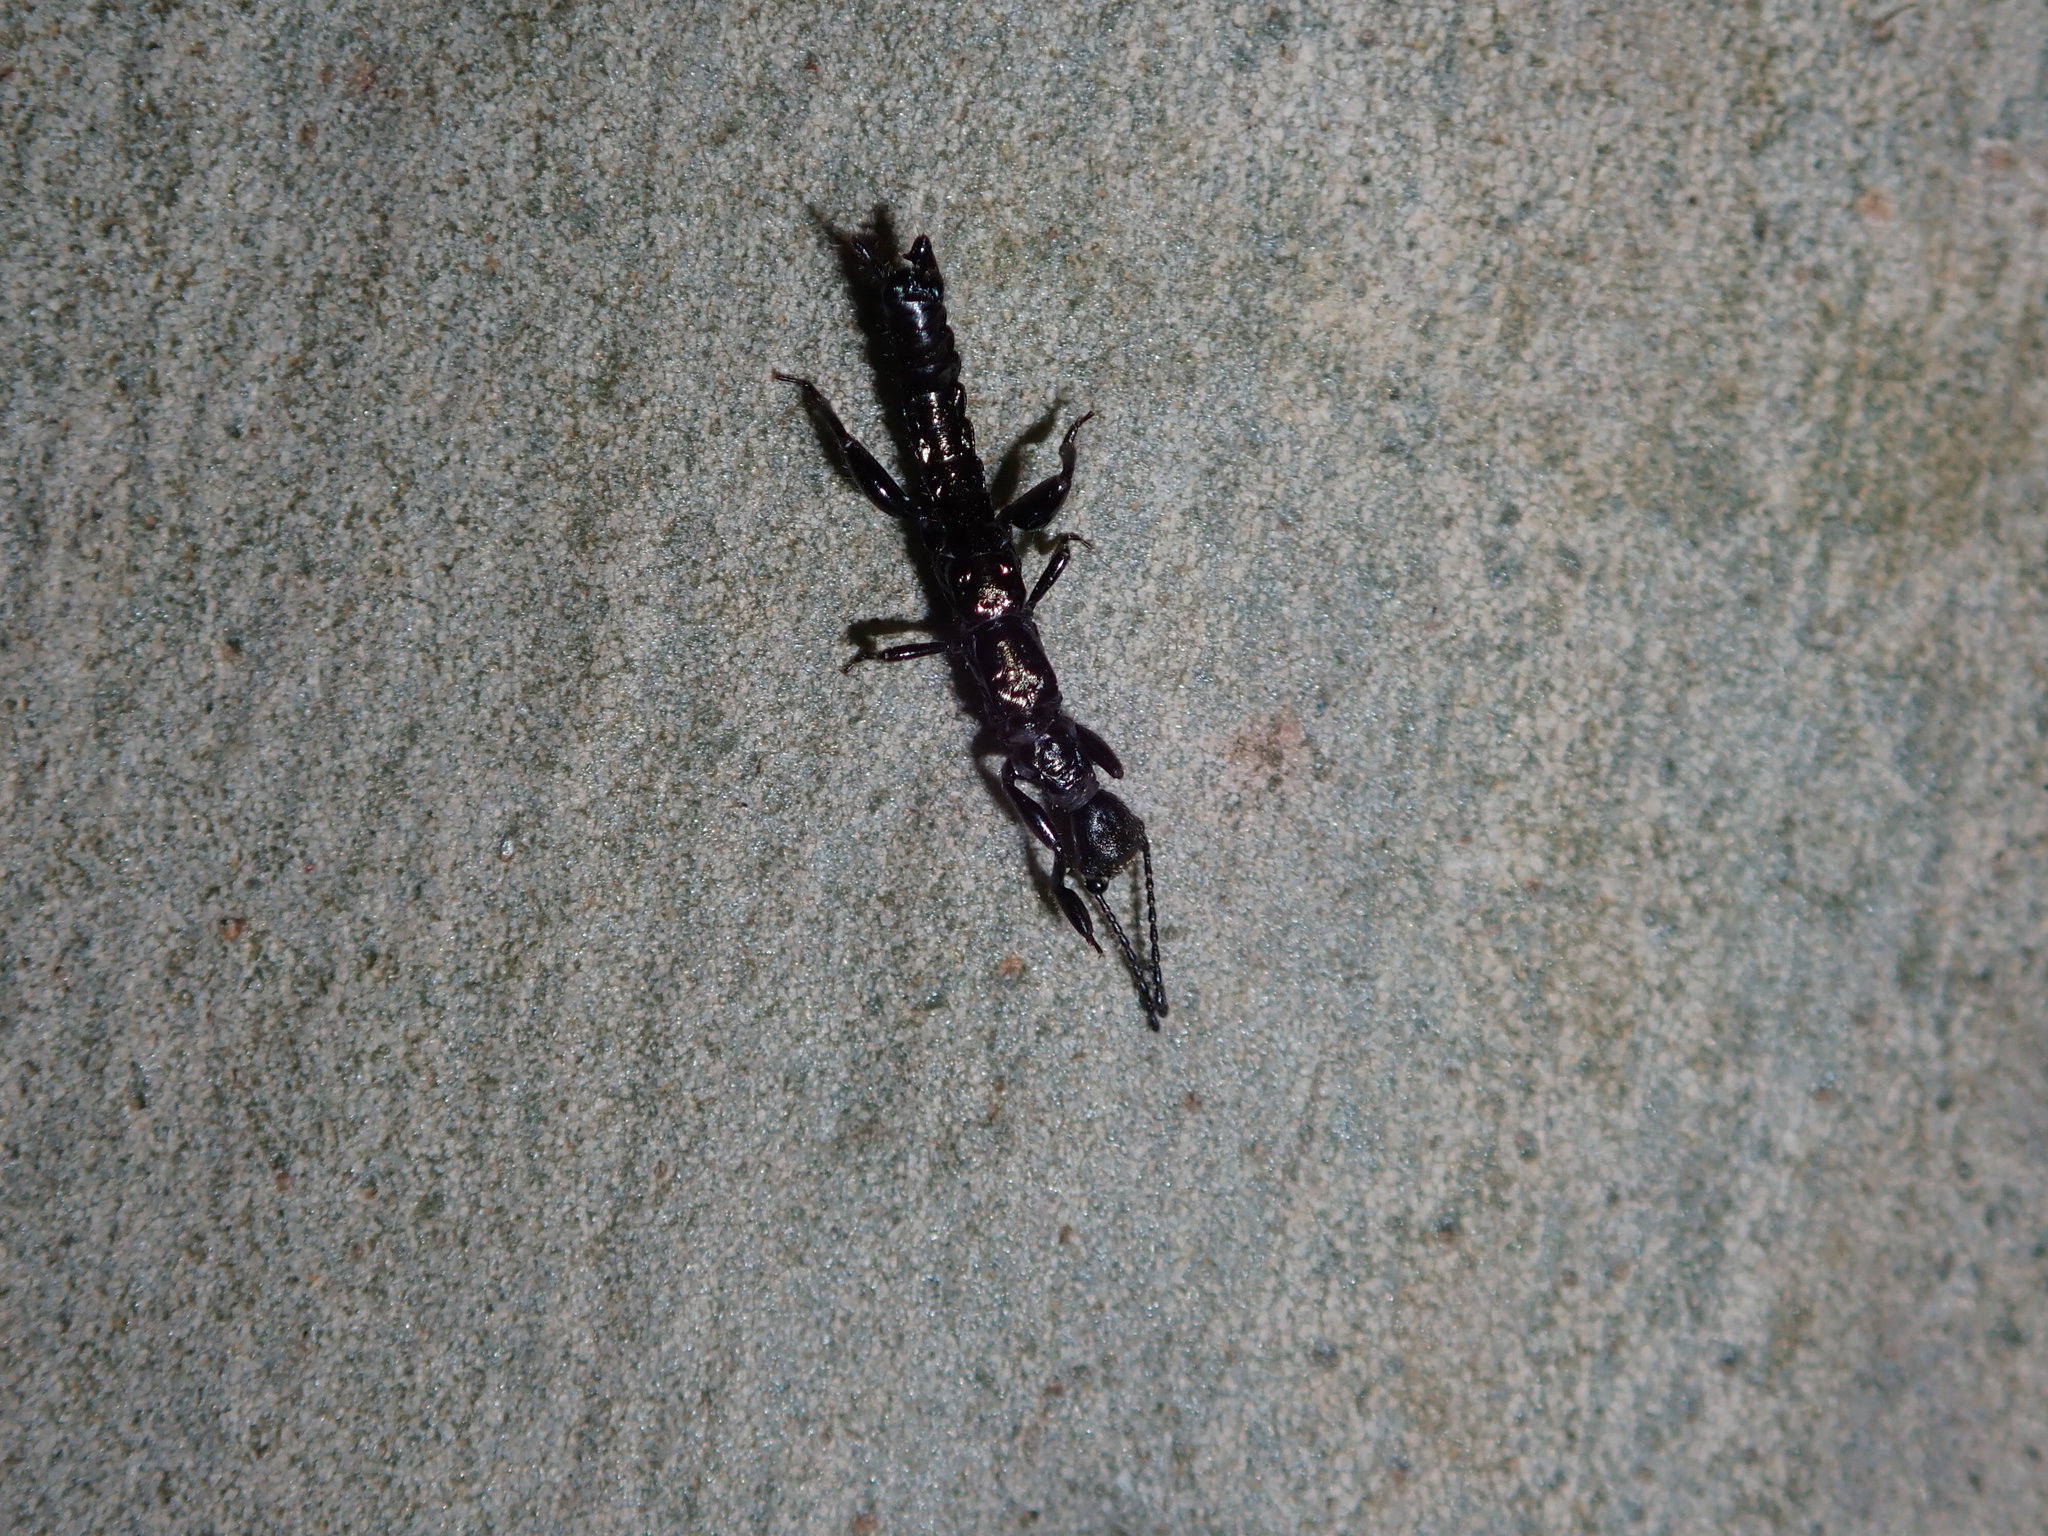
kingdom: Animalia
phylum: Arthropoda
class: Insecta
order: Embioptera
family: Notoligotomidae
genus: Notoligotoma
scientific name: Notoligotoma nitens
